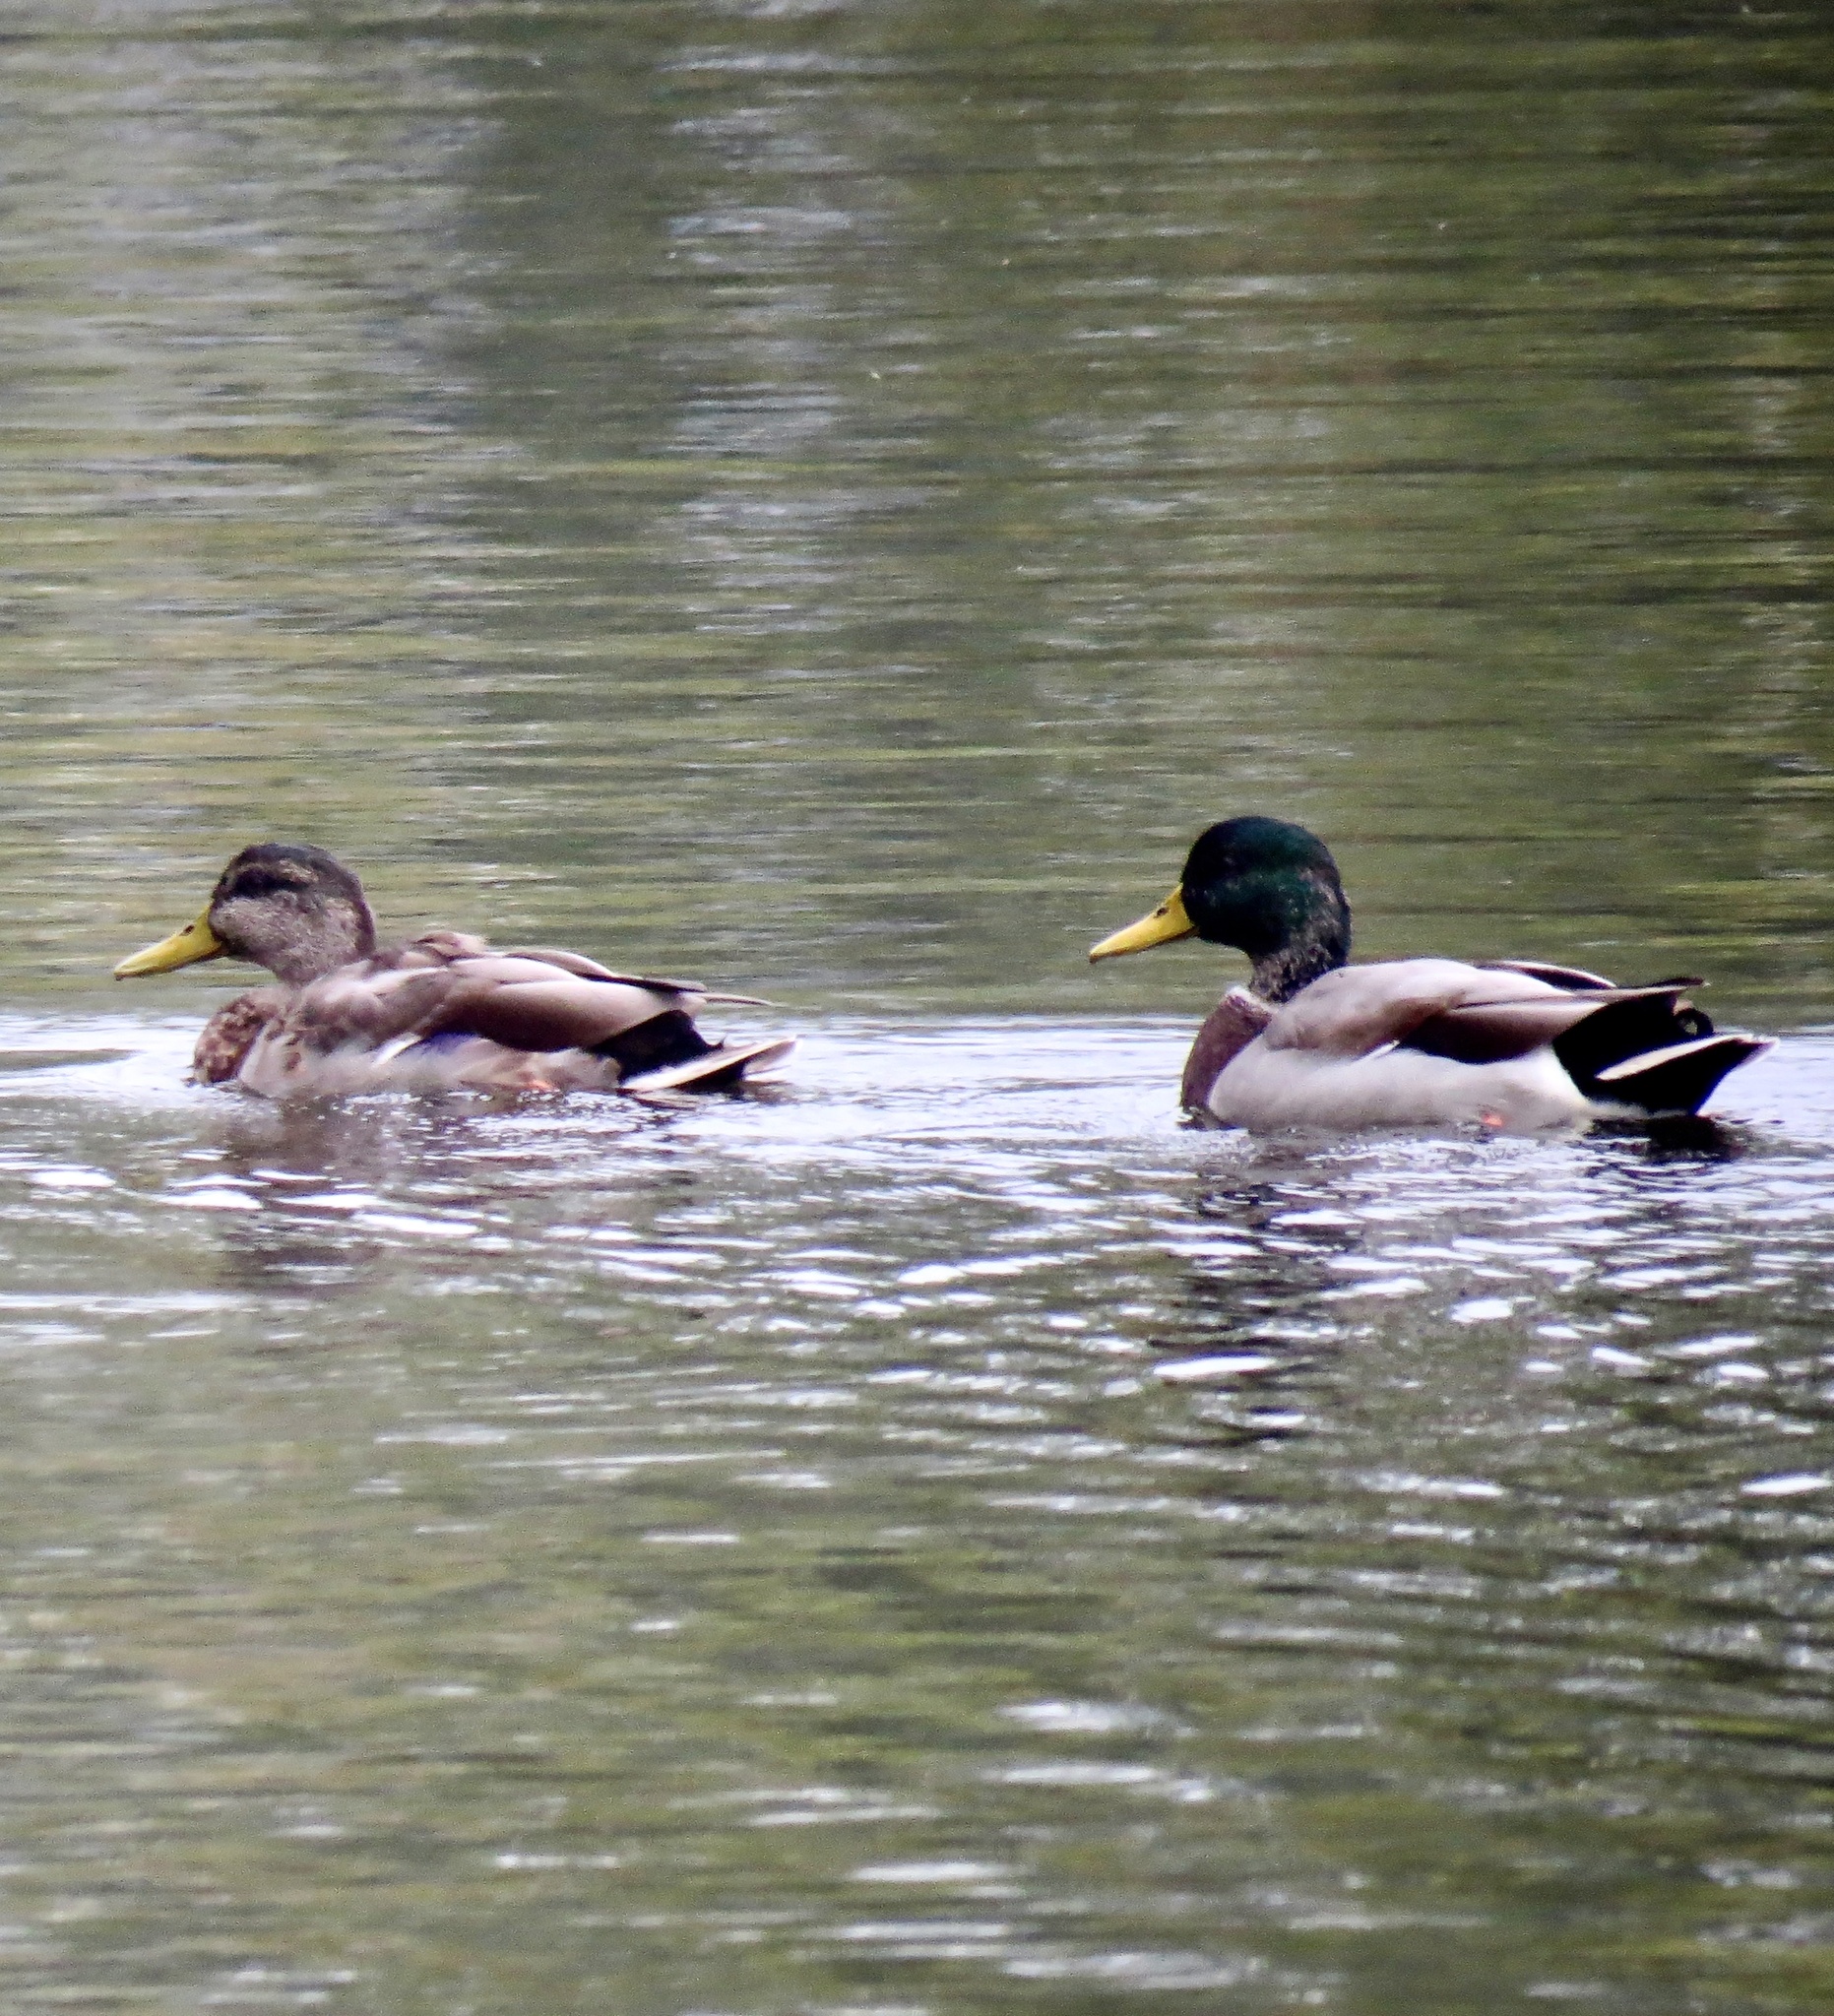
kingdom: Animalia
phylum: Chordata
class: Aves
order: Anseriformes
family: Anatidae
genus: Anas
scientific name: Anas platyrhynchos
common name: Mallard
